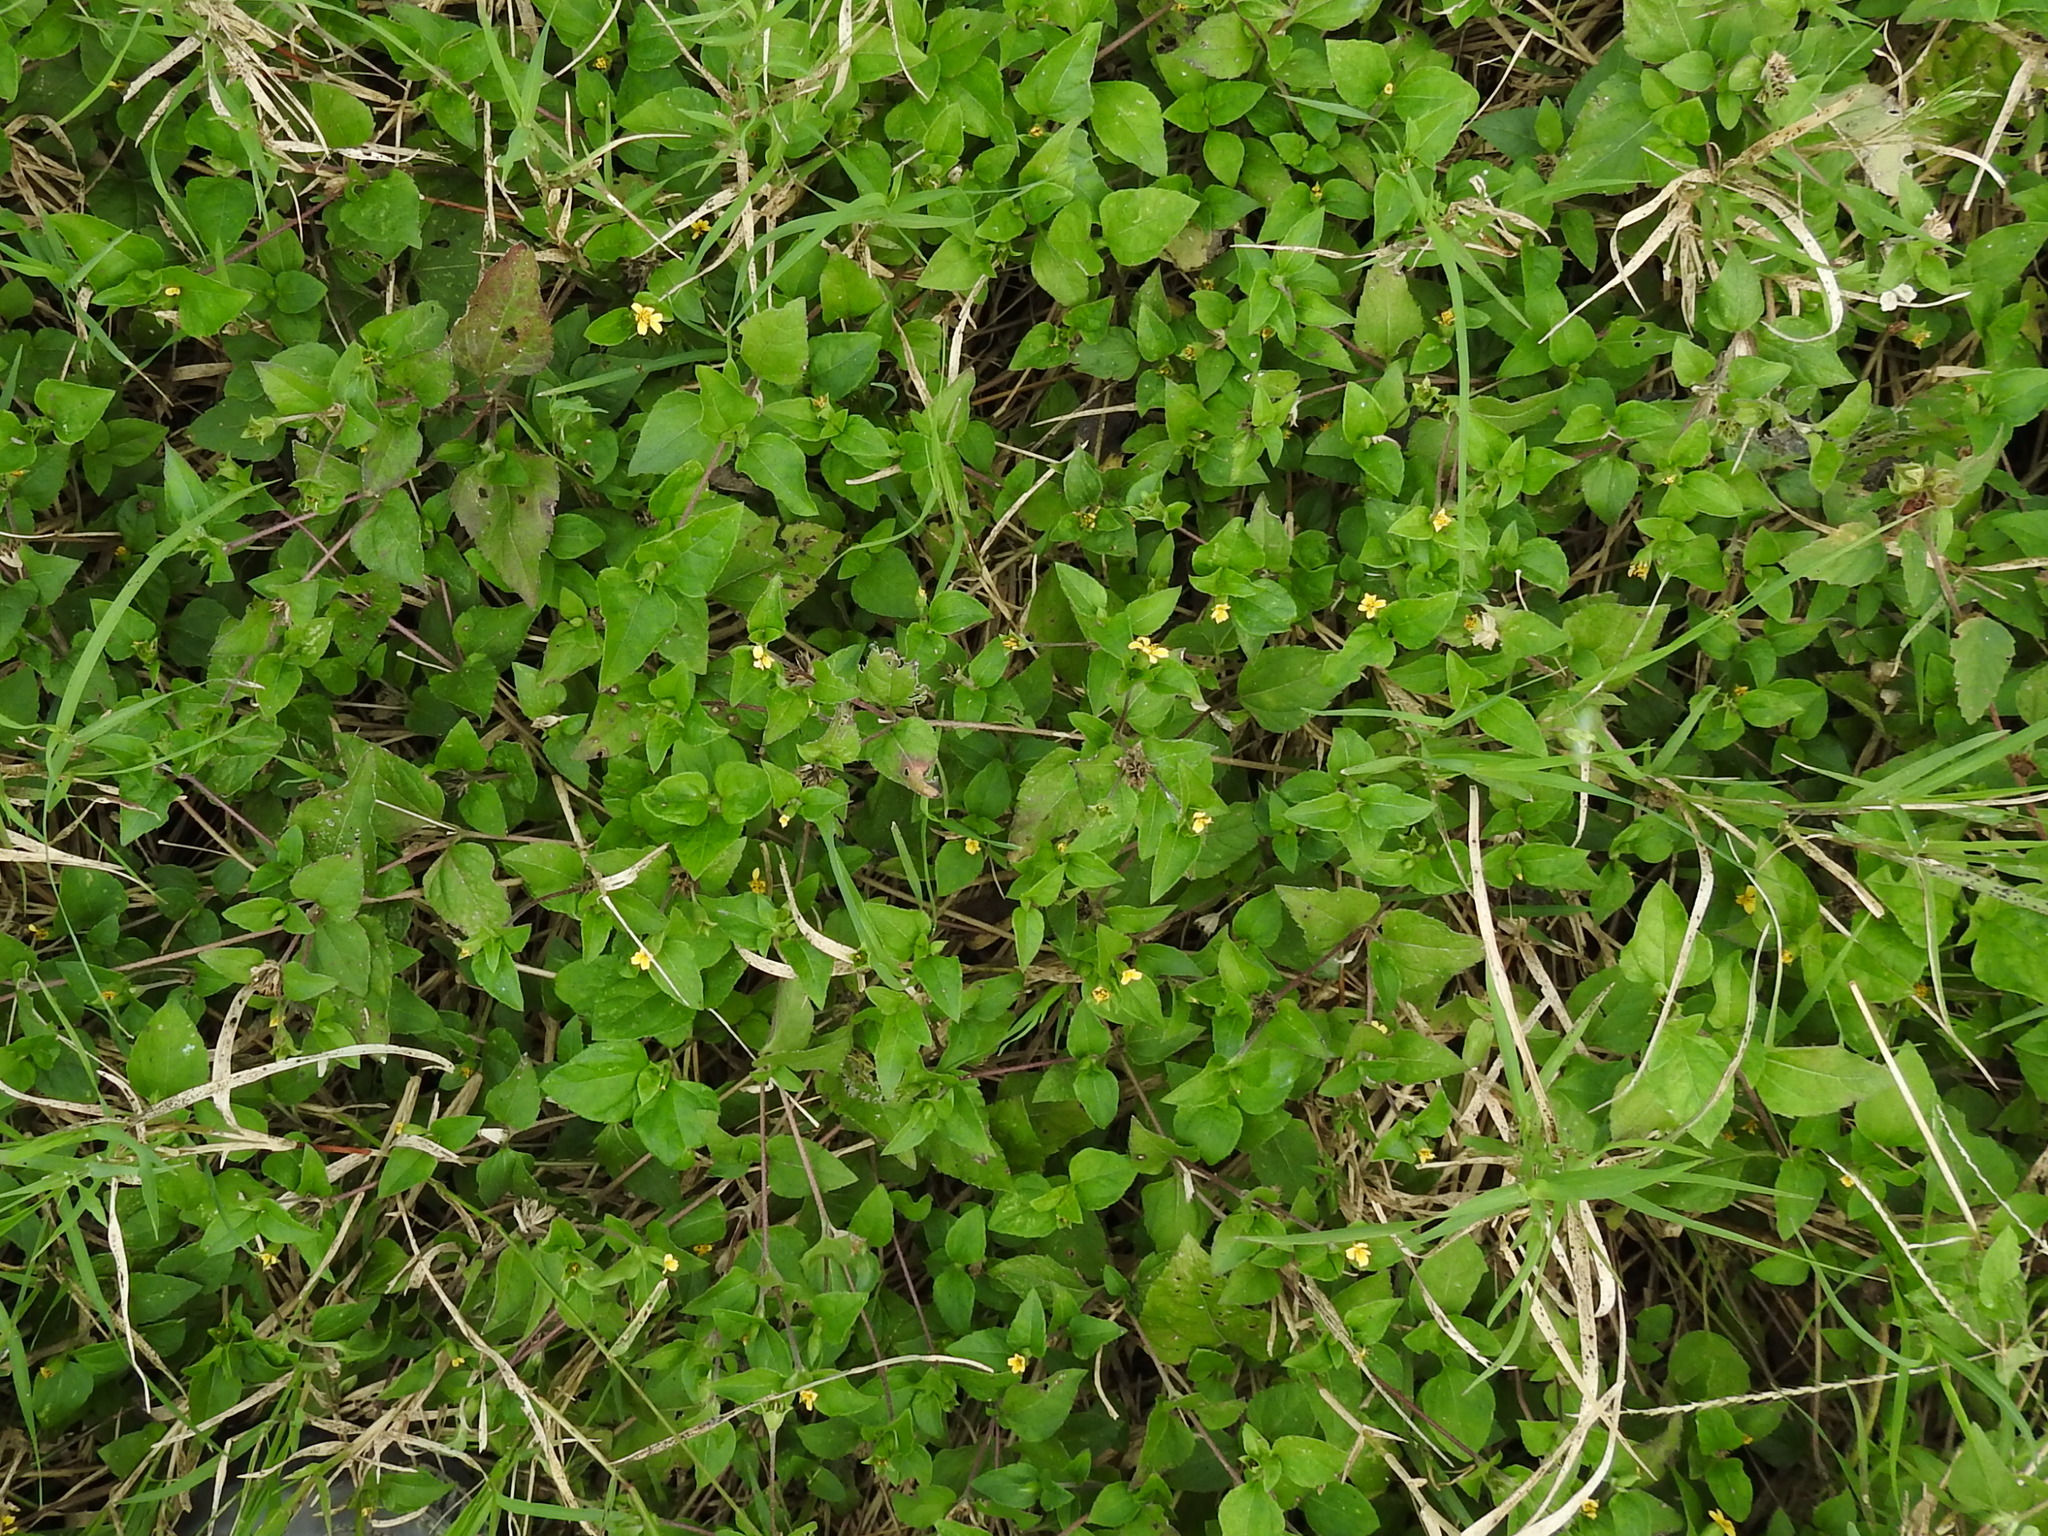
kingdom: Plantae
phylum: Tracheophyta
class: Magnoliopsida
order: Asterales
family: Asteraceae
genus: Calyptocarpus
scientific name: Calyptocarpus vialis
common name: Straggler daisy
